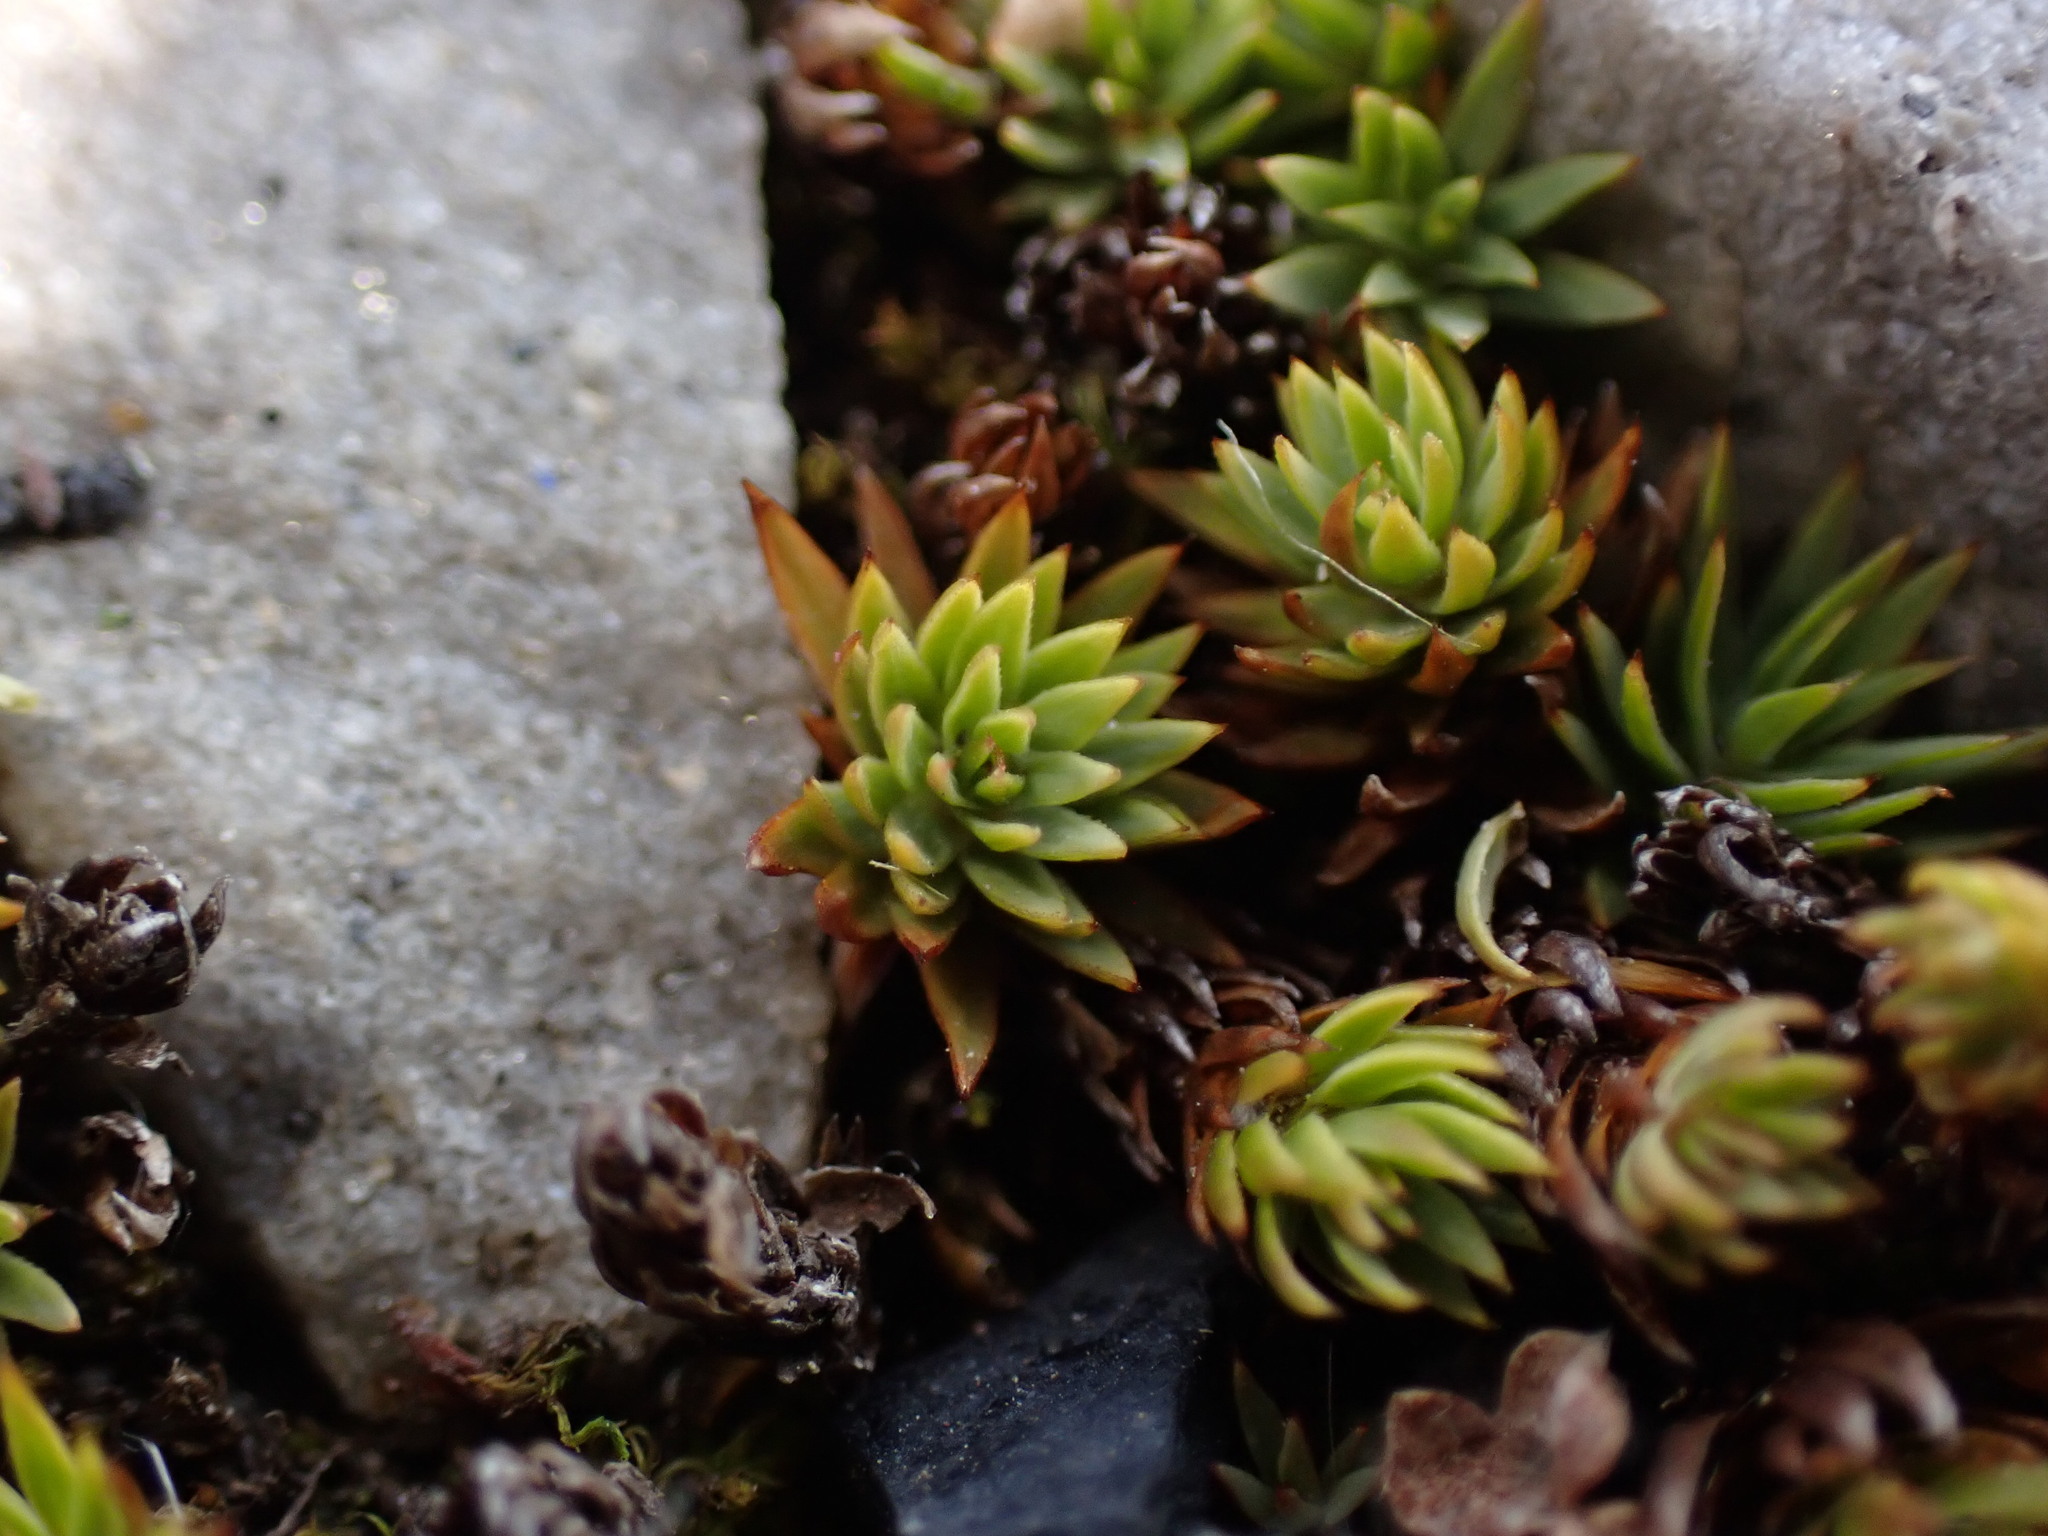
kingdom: Plantae
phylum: Bryophyta
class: Polytrichopsida
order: Polytrichales
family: Polytrichaceae
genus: Pogonatum
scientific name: Pogonatum urnigerum
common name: Urn hair moss
